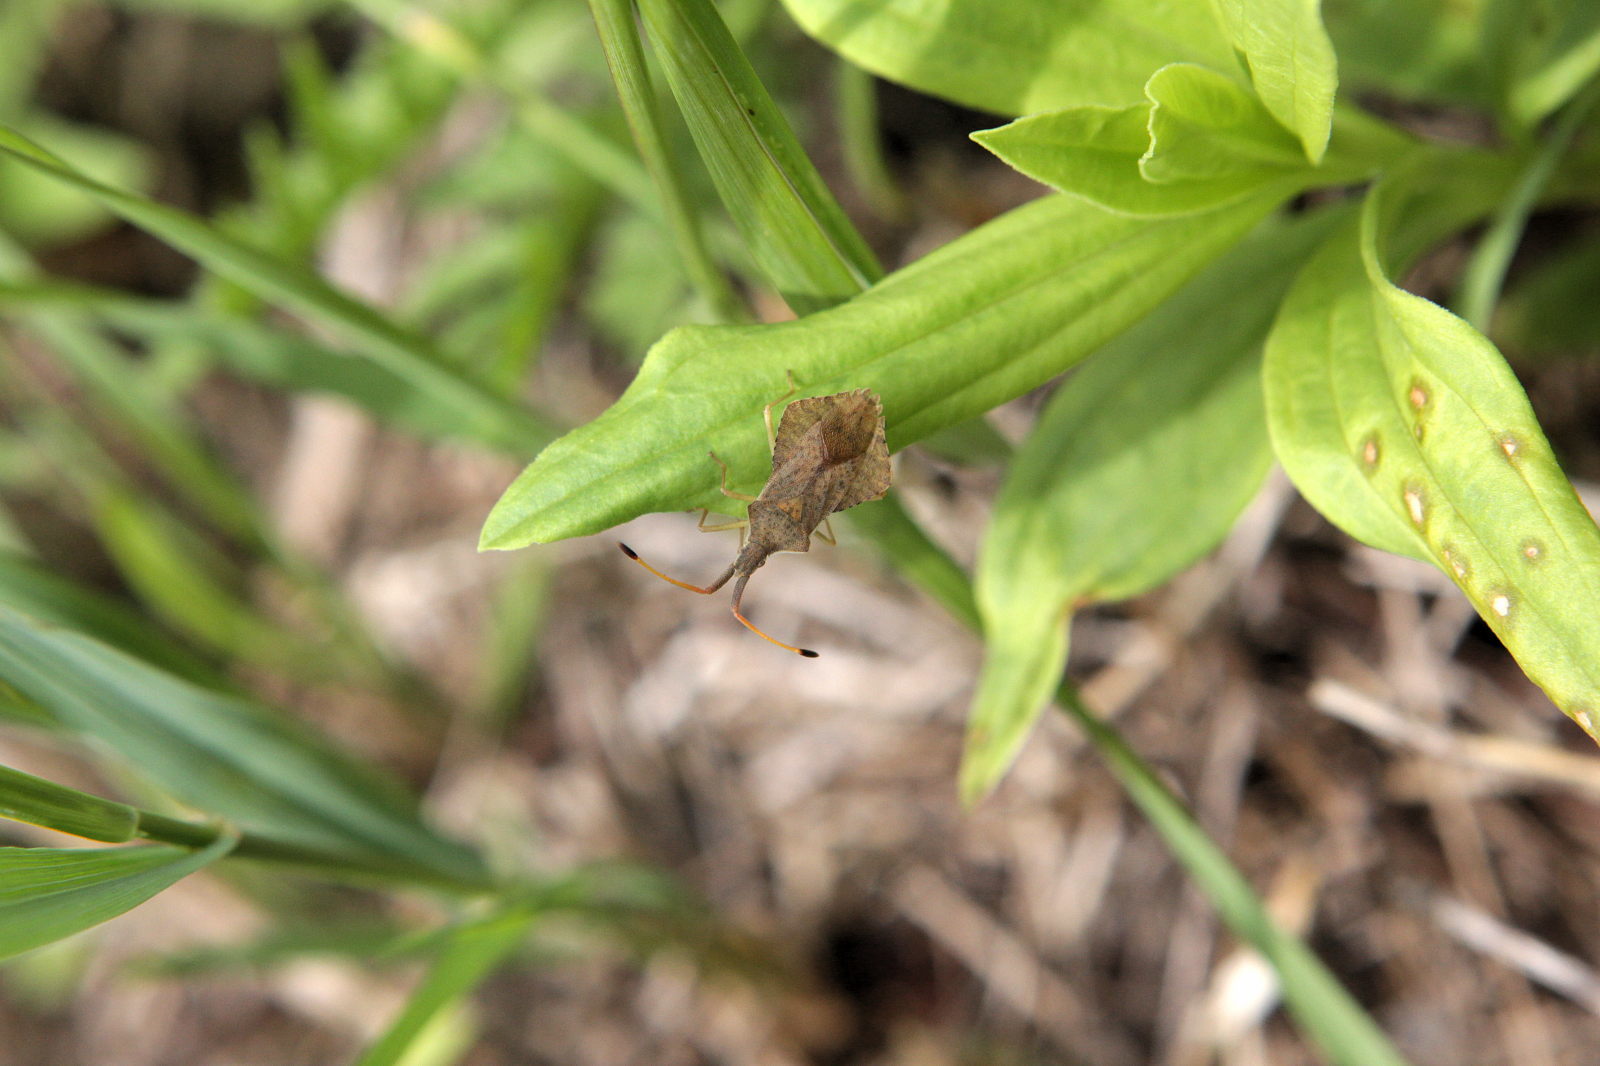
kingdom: Animalia
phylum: Arthropoda
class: Insecta
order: Hemiptera
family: Coreidae
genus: Syromastus
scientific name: Syromastus rhombeus
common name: Rhombic leatherbug
